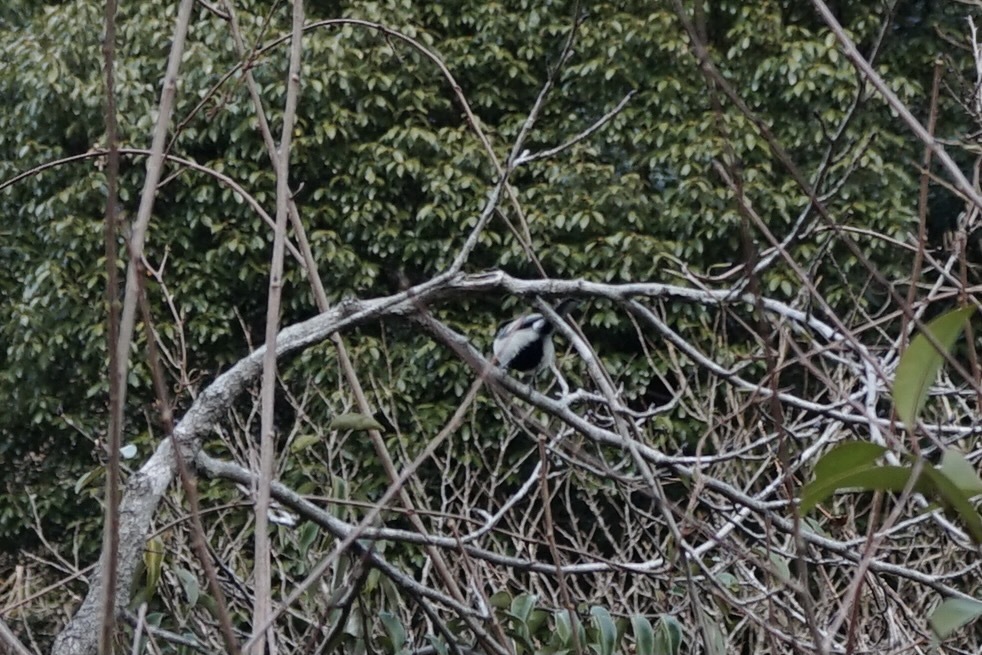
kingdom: Animalia
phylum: Chordata
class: Aves
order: Passeriformes
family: Paridae
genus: Parus
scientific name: Parus minor
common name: Japanese tit
